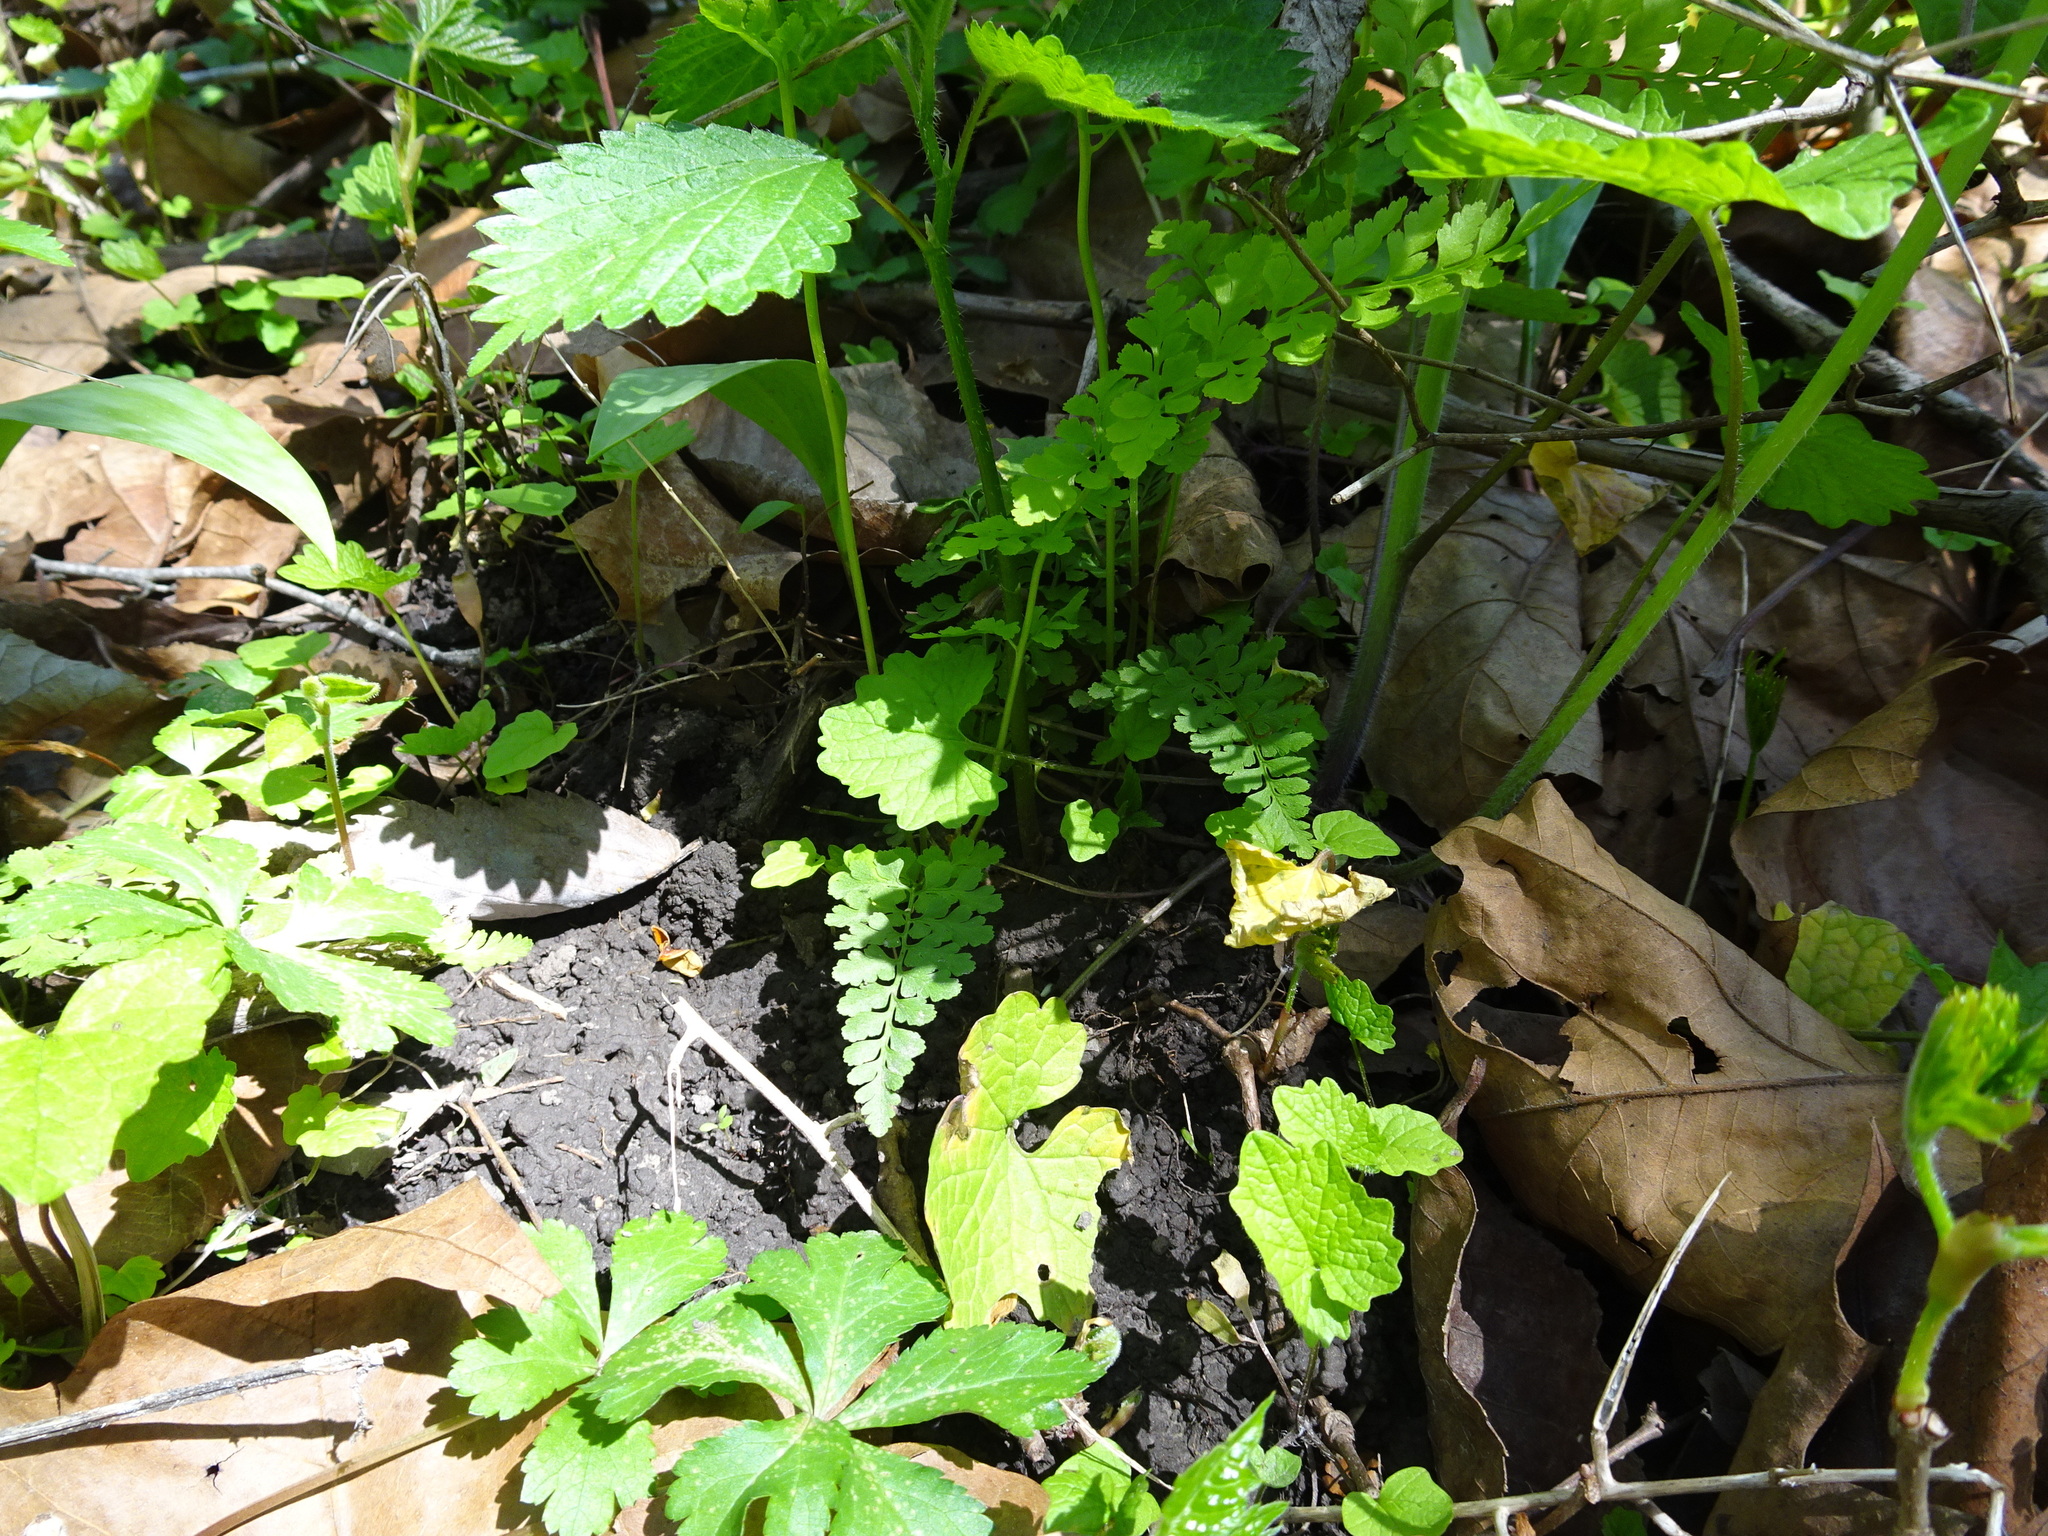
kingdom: Plantae
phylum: Tracheophyta
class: Polypodiopsida
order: Polypodiales
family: Cystopteridaceae
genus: Cystopteris
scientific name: Cystopteris protrusa
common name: Lowland brittle fern
